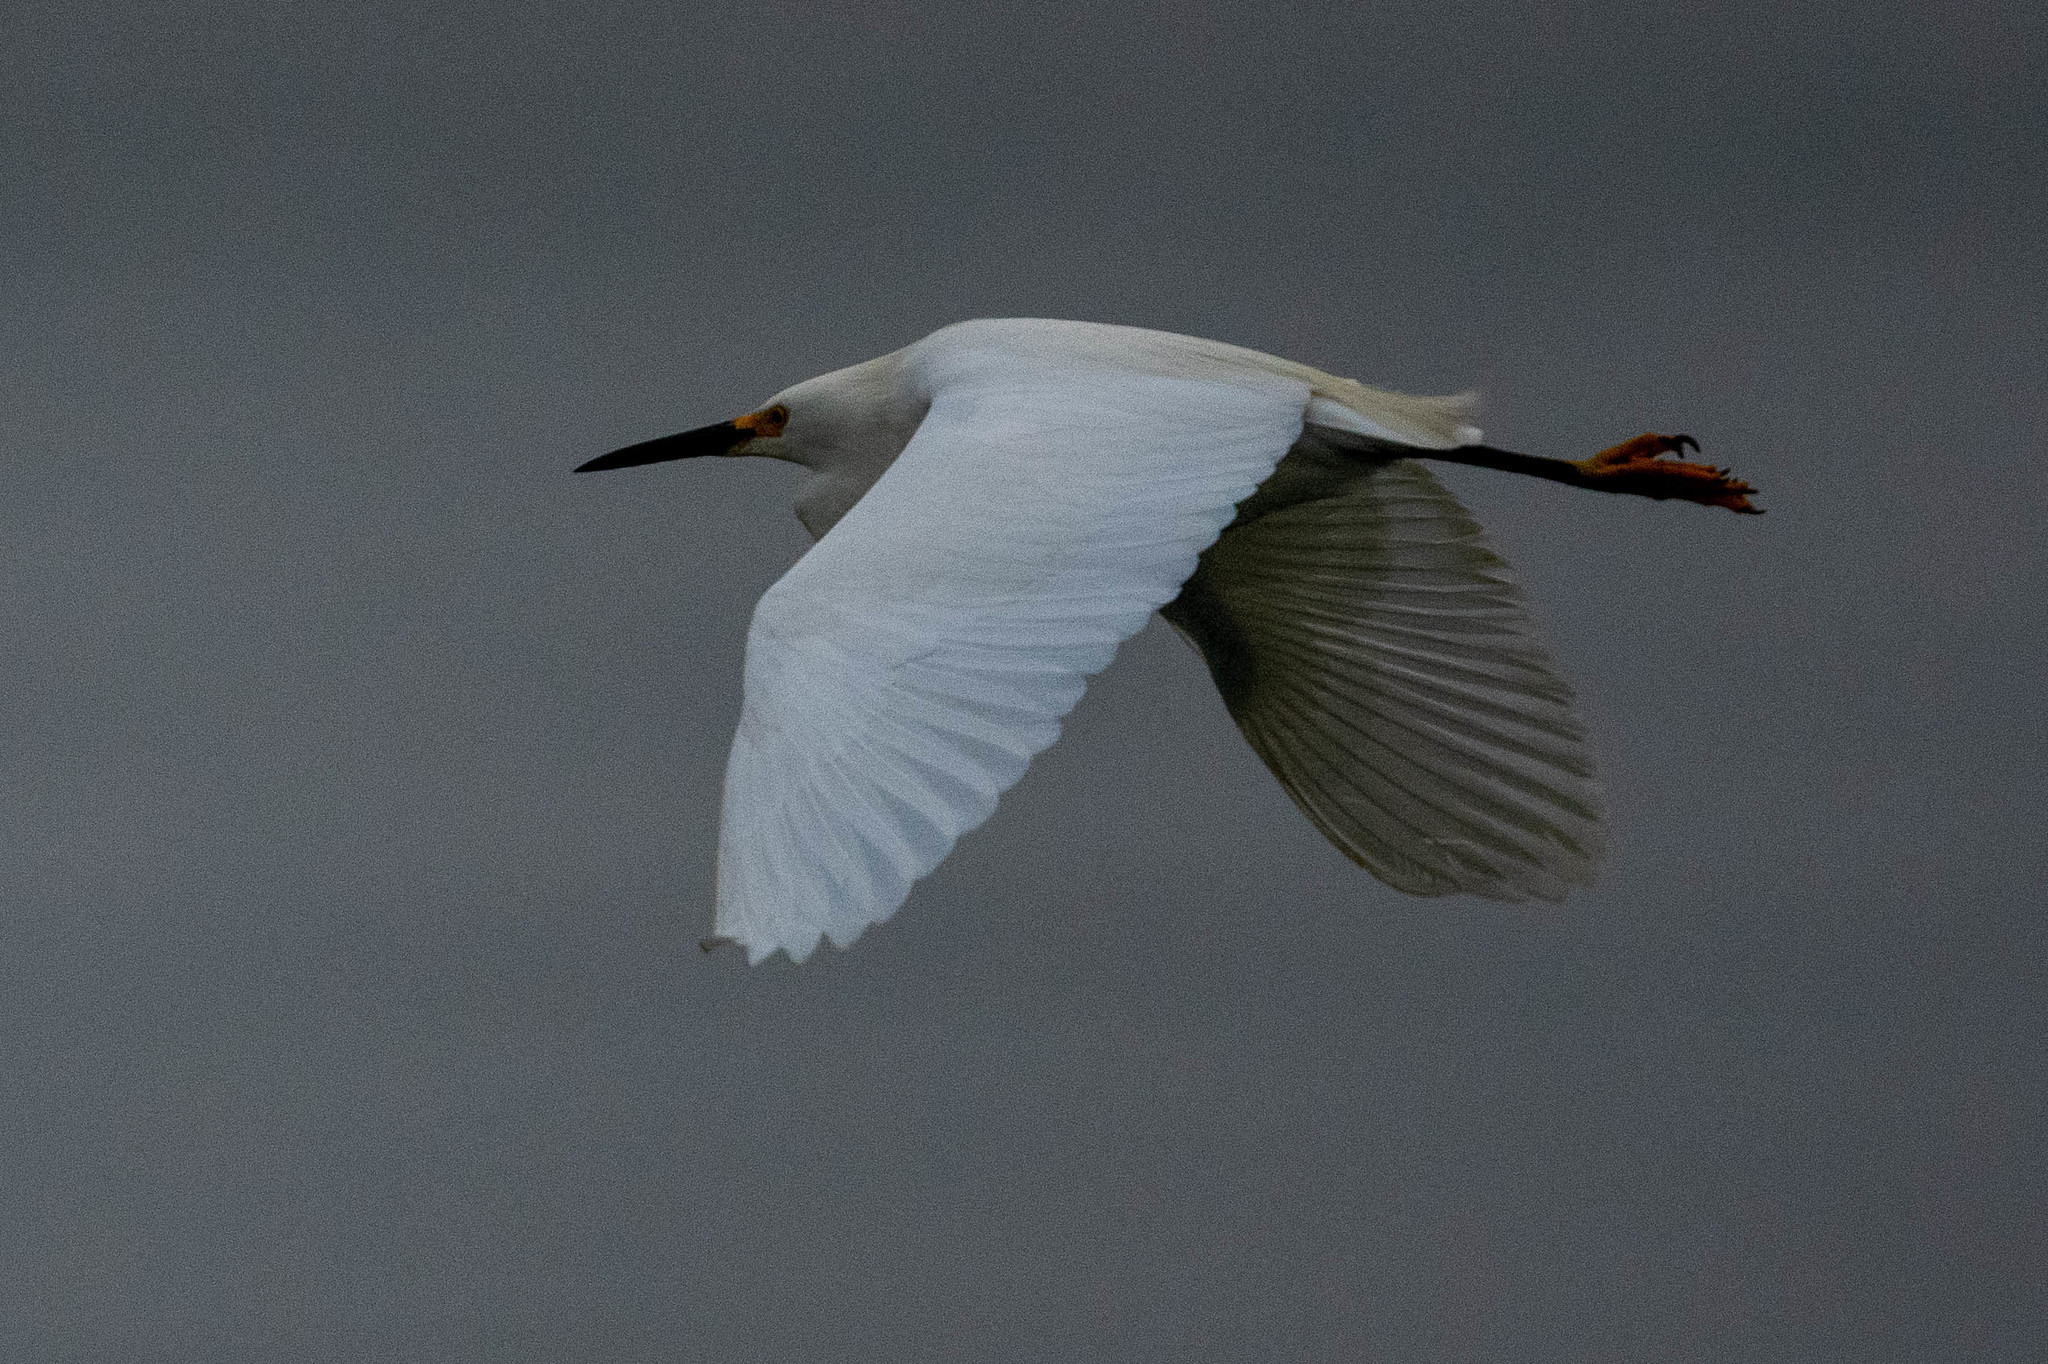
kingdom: Animalia
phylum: Chordata
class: Aves
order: Pelecaniformes
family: Ardeidae
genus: Egretta
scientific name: Egretta thula
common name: Snowy egret
